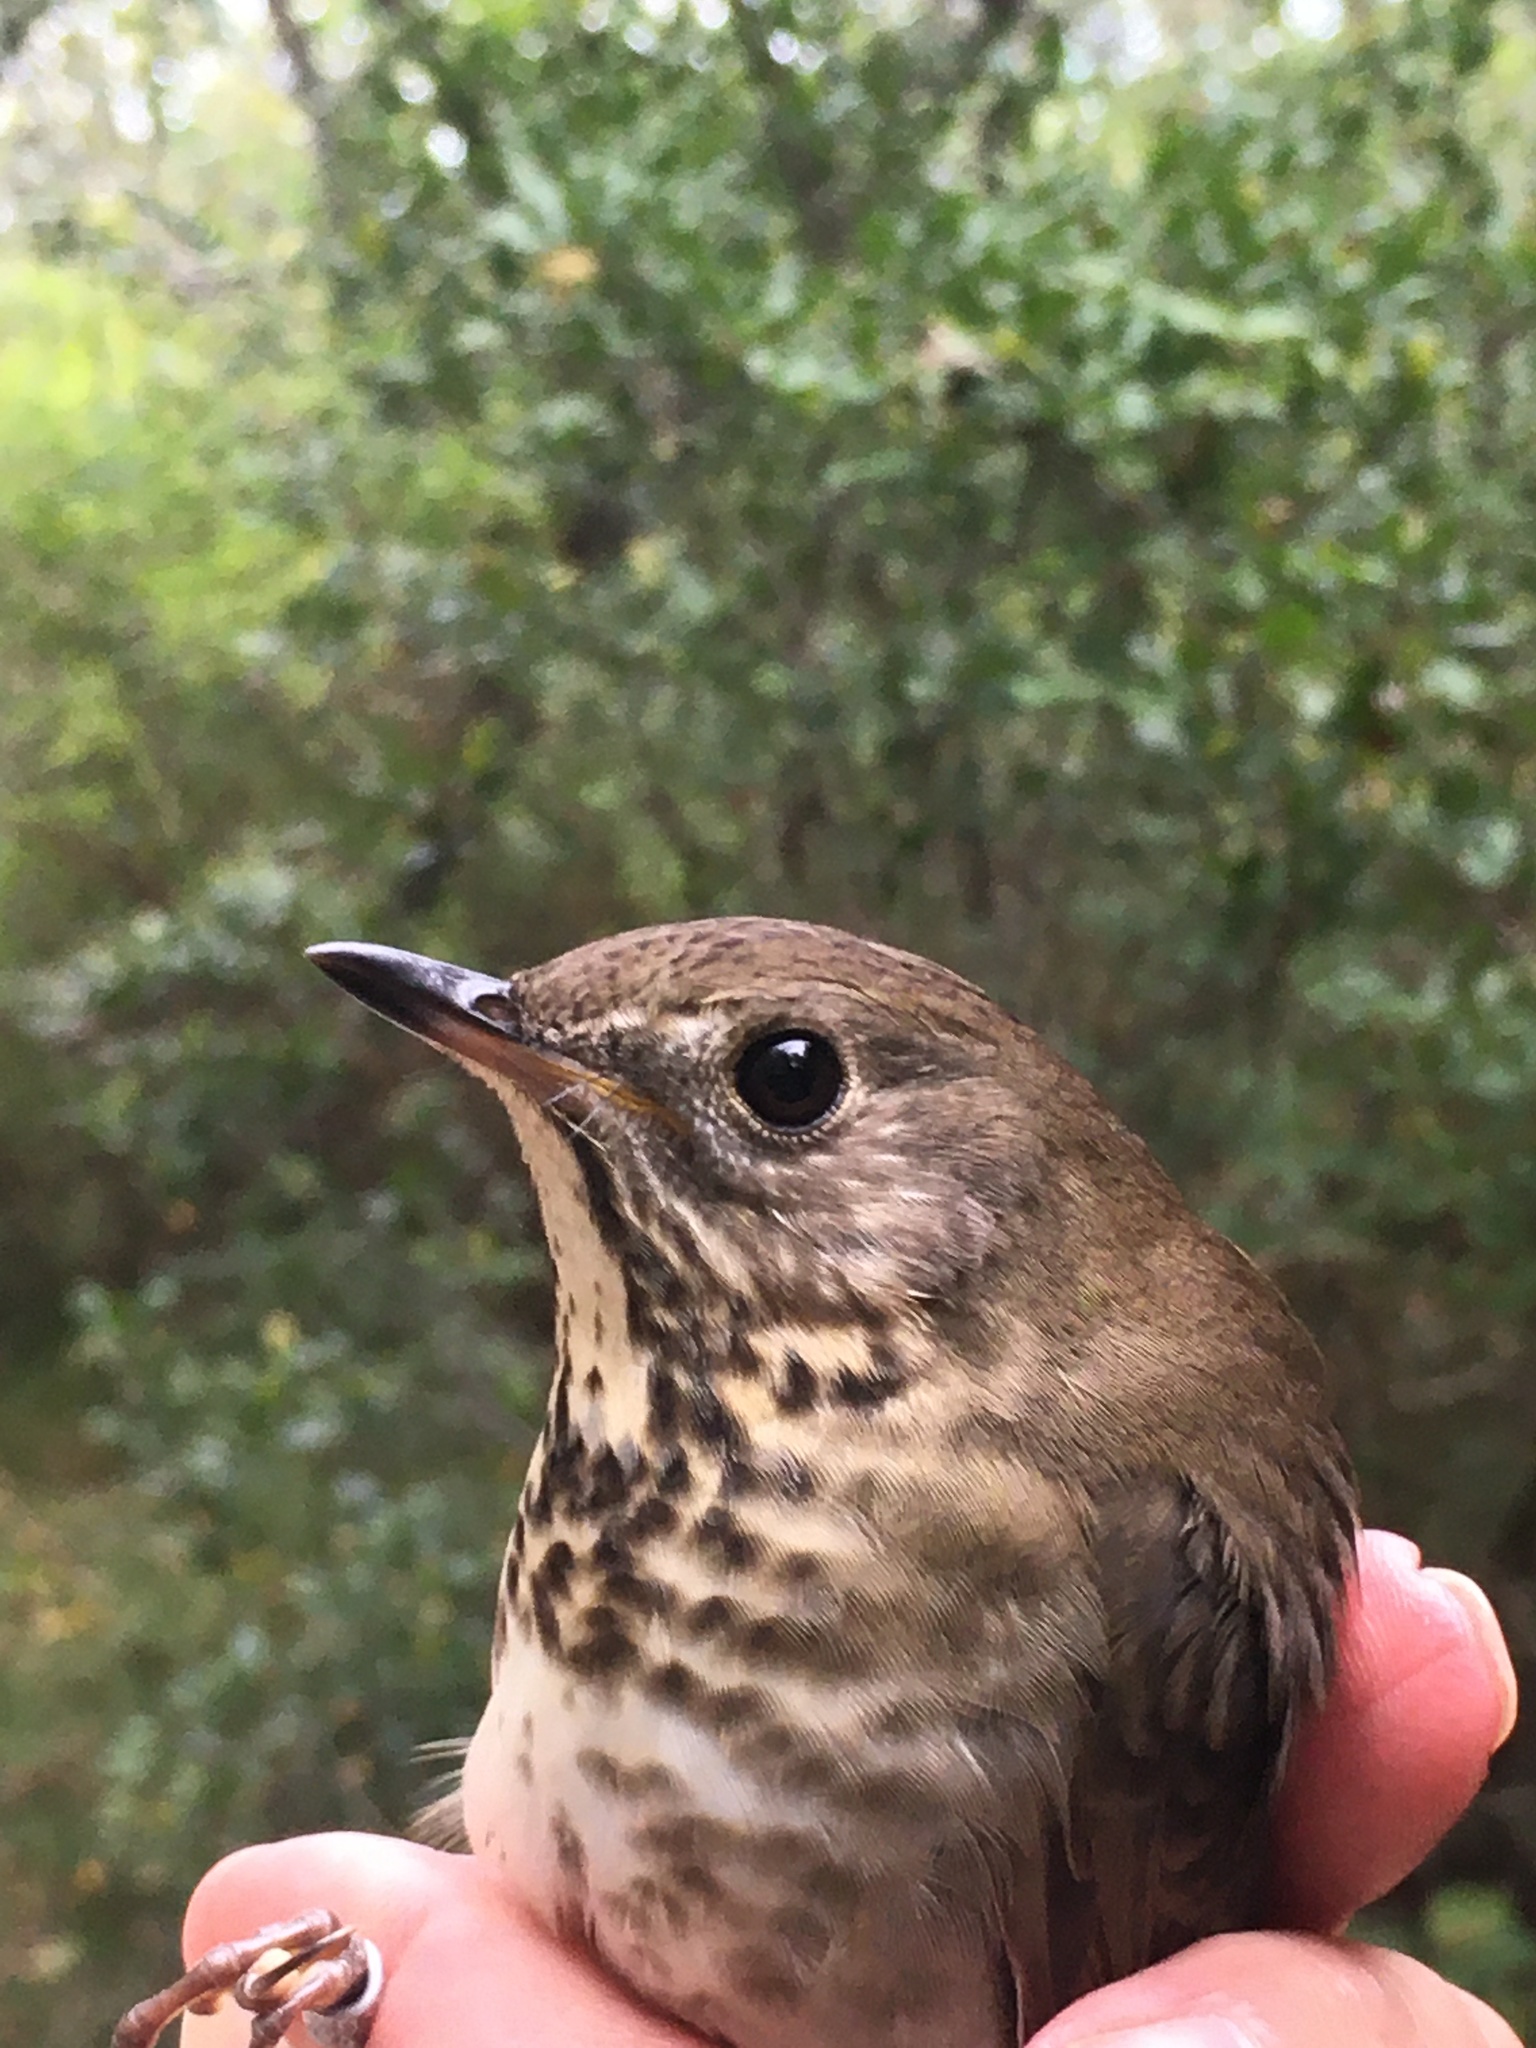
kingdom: Animalia
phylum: Chordata
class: Aves
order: Passeriformes
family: Turdidae
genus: Catharus
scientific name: Catharus minimus
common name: Grey-cheeked thrush
